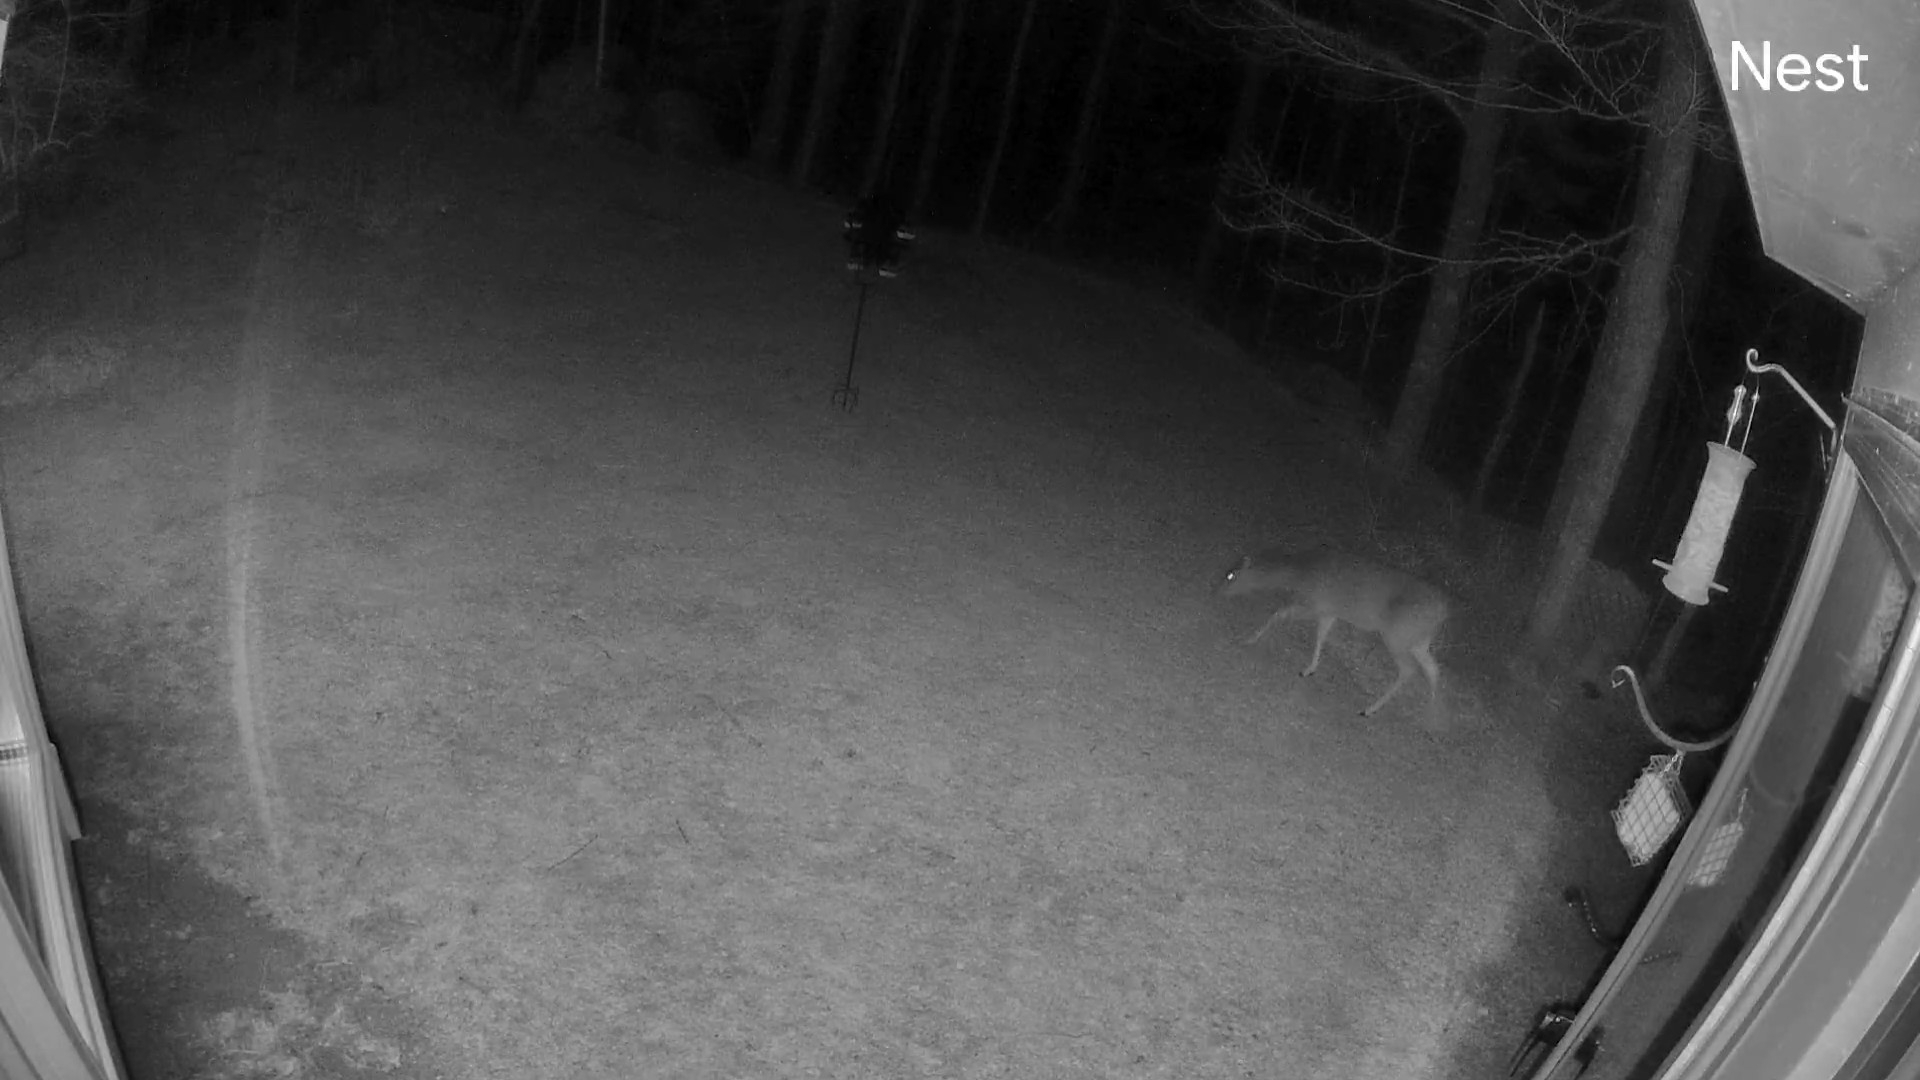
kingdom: Animalia
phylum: Chordata
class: Mammalia
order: Artiodactyla
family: Cervidae
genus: Odocoileus
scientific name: Odocoileus virginianus
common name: White-tailed deer
